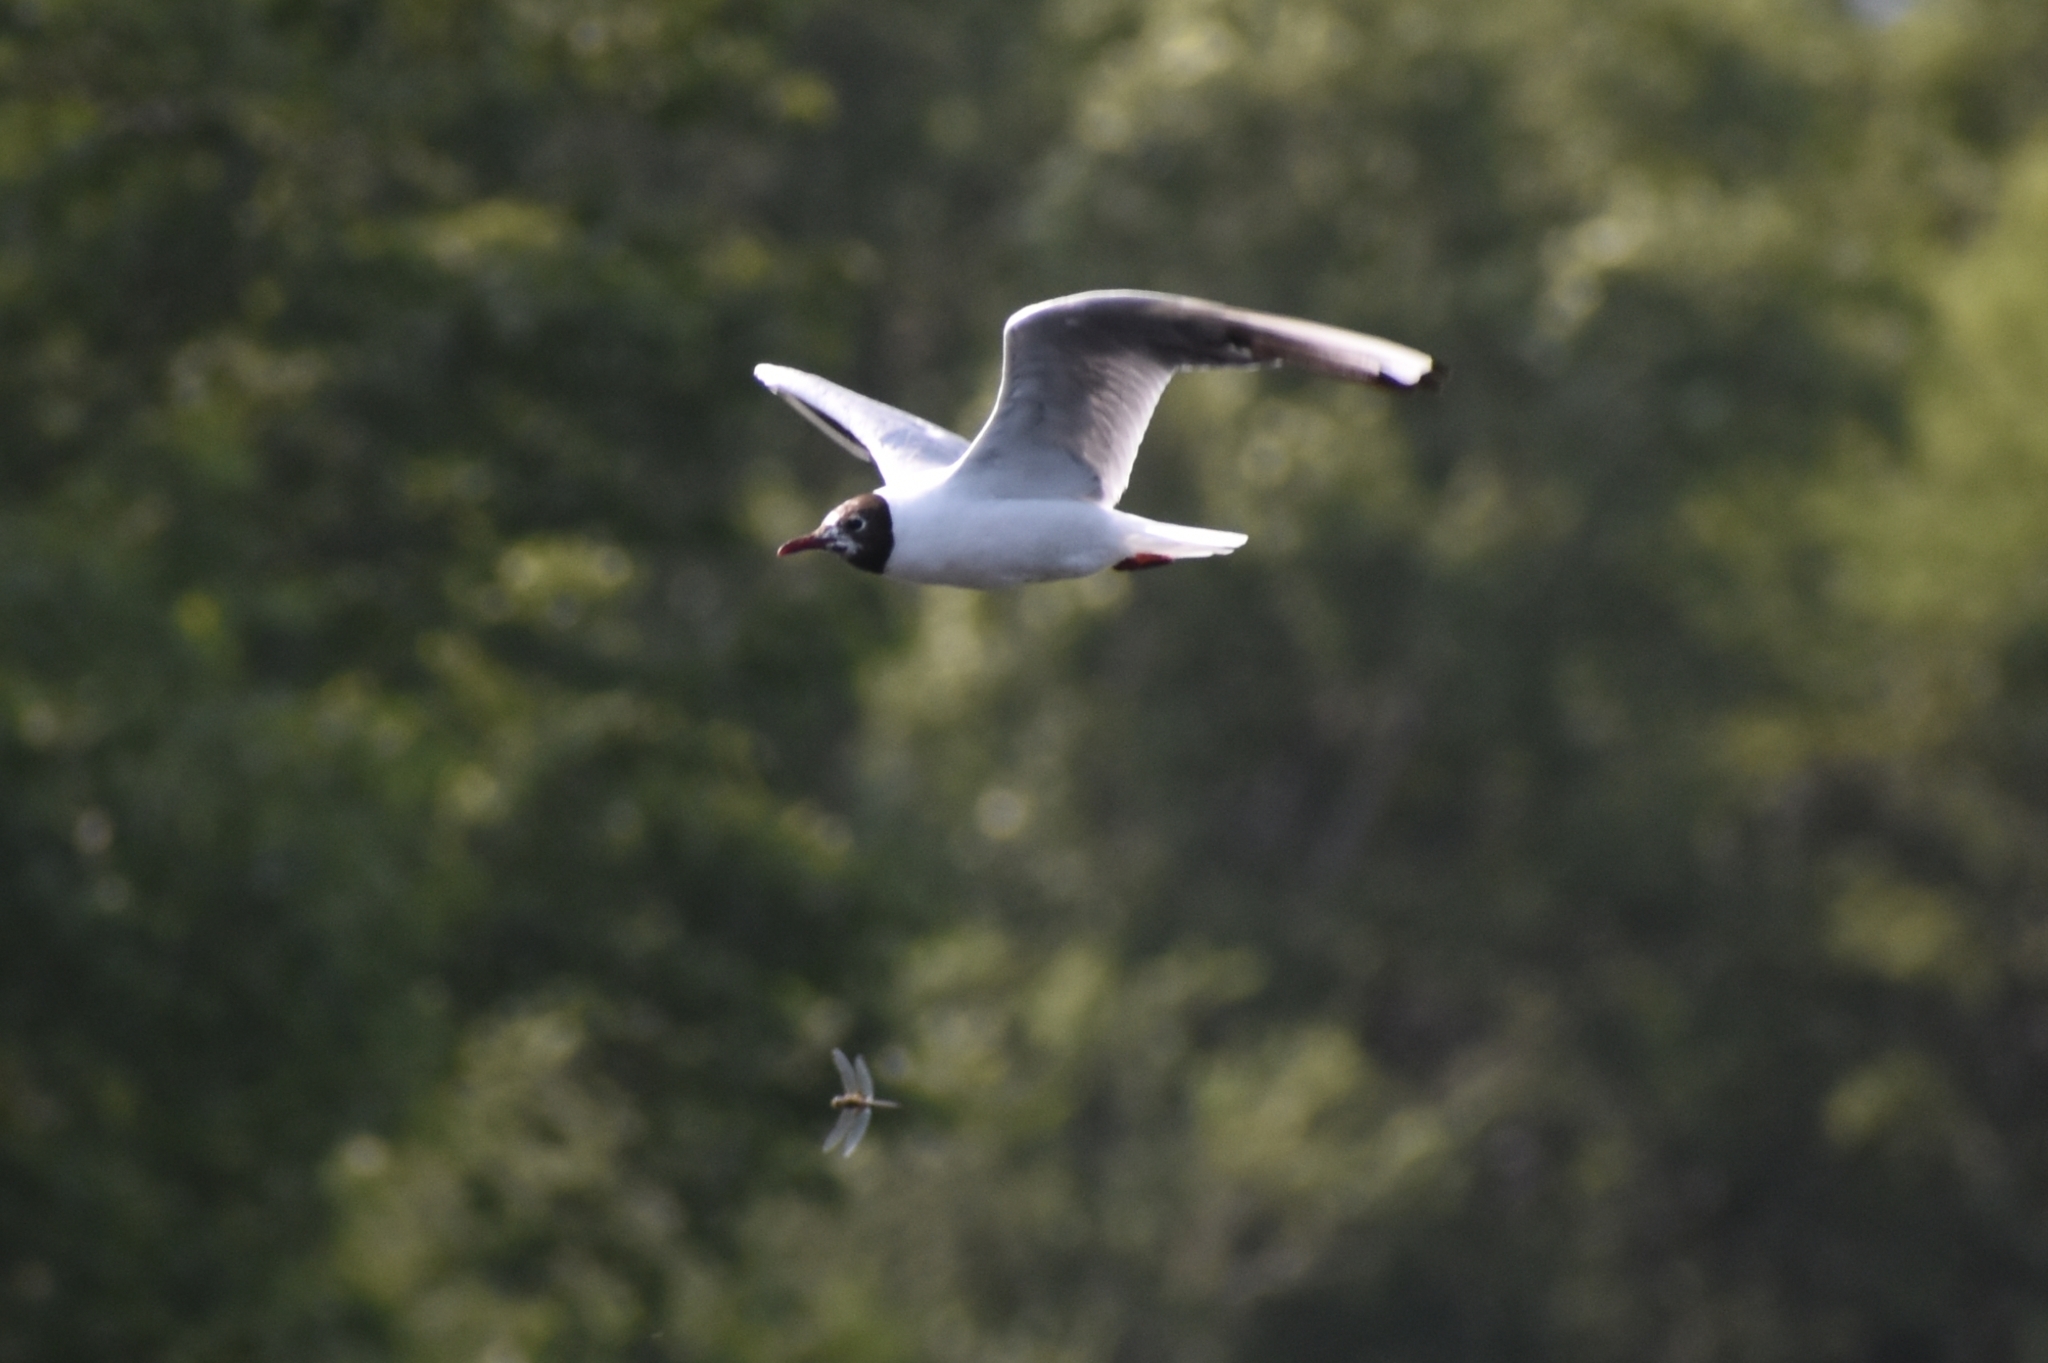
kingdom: Animalia
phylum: Chordata
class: Aves
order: Charadriiformes
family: Laridae
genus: Chroicocephalus
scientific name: Chroicocephalus ridibundus
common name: Black-headed gull
